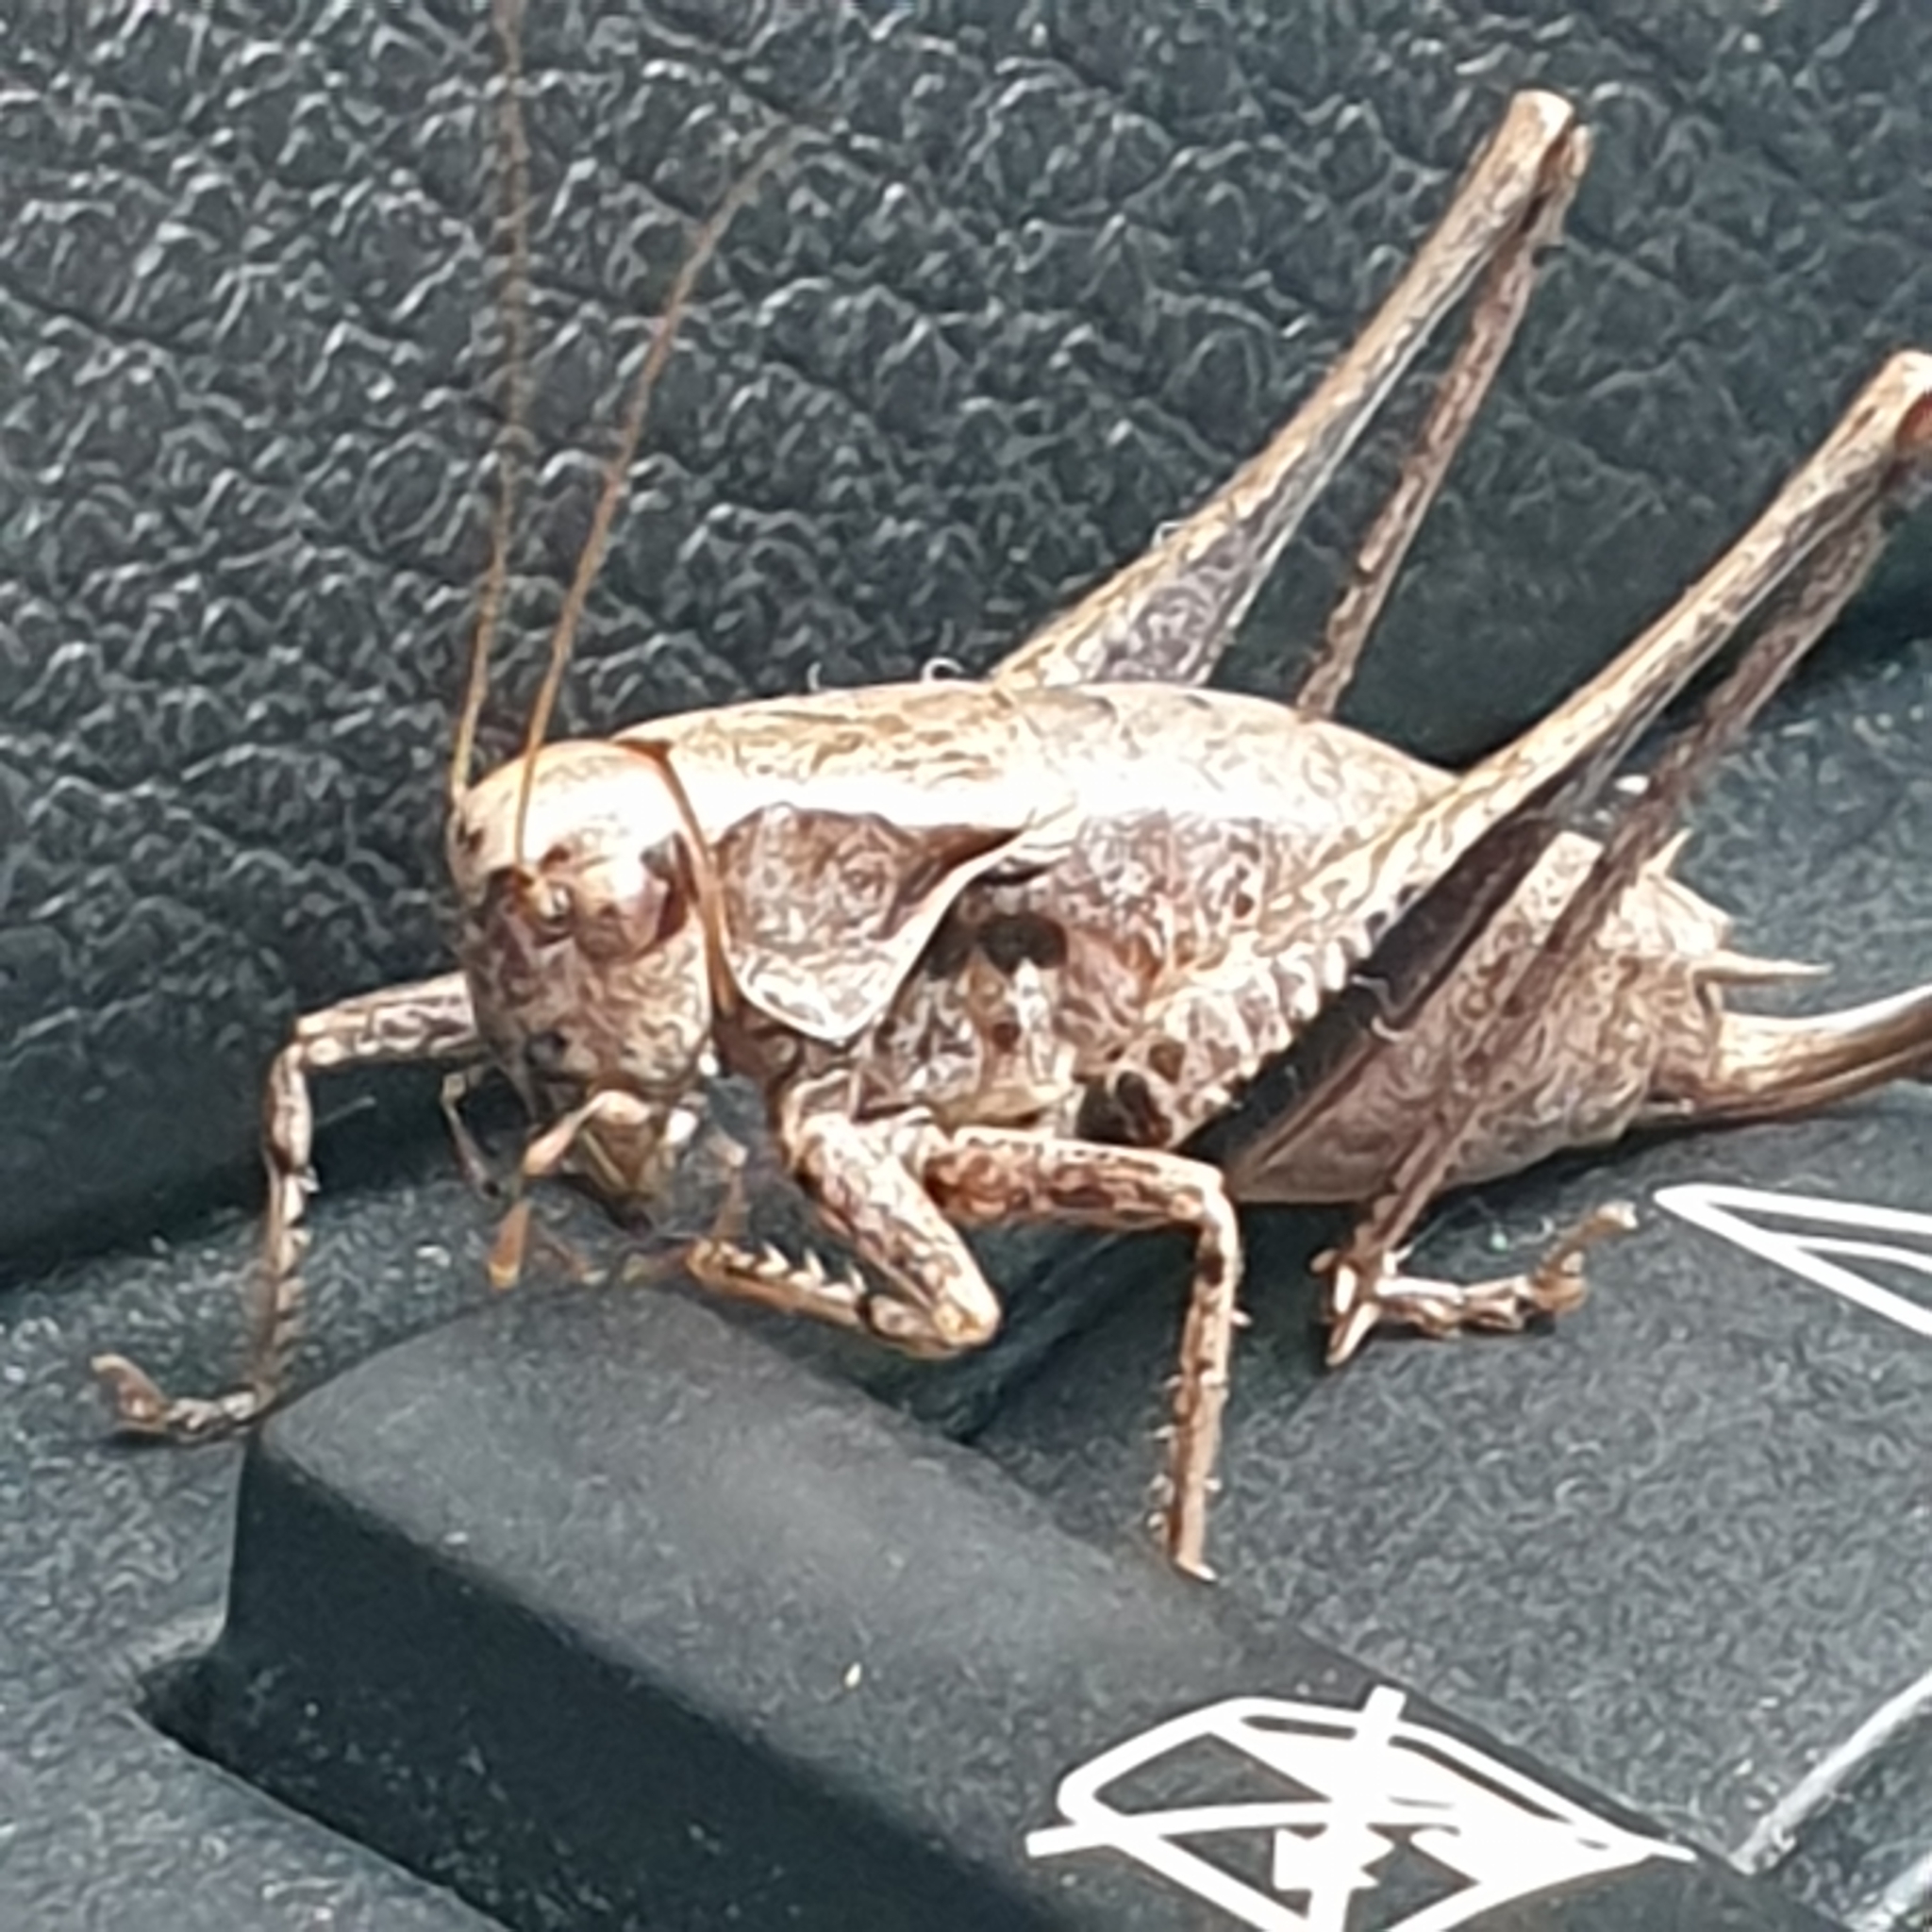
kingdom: Animalia
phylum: Arthropoda
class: Insecta
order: Orthoptera
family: Tettigoniidae
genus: Pholidoptera
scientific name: Pholidoptera griseoaptera
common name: Dark bush-cricket
